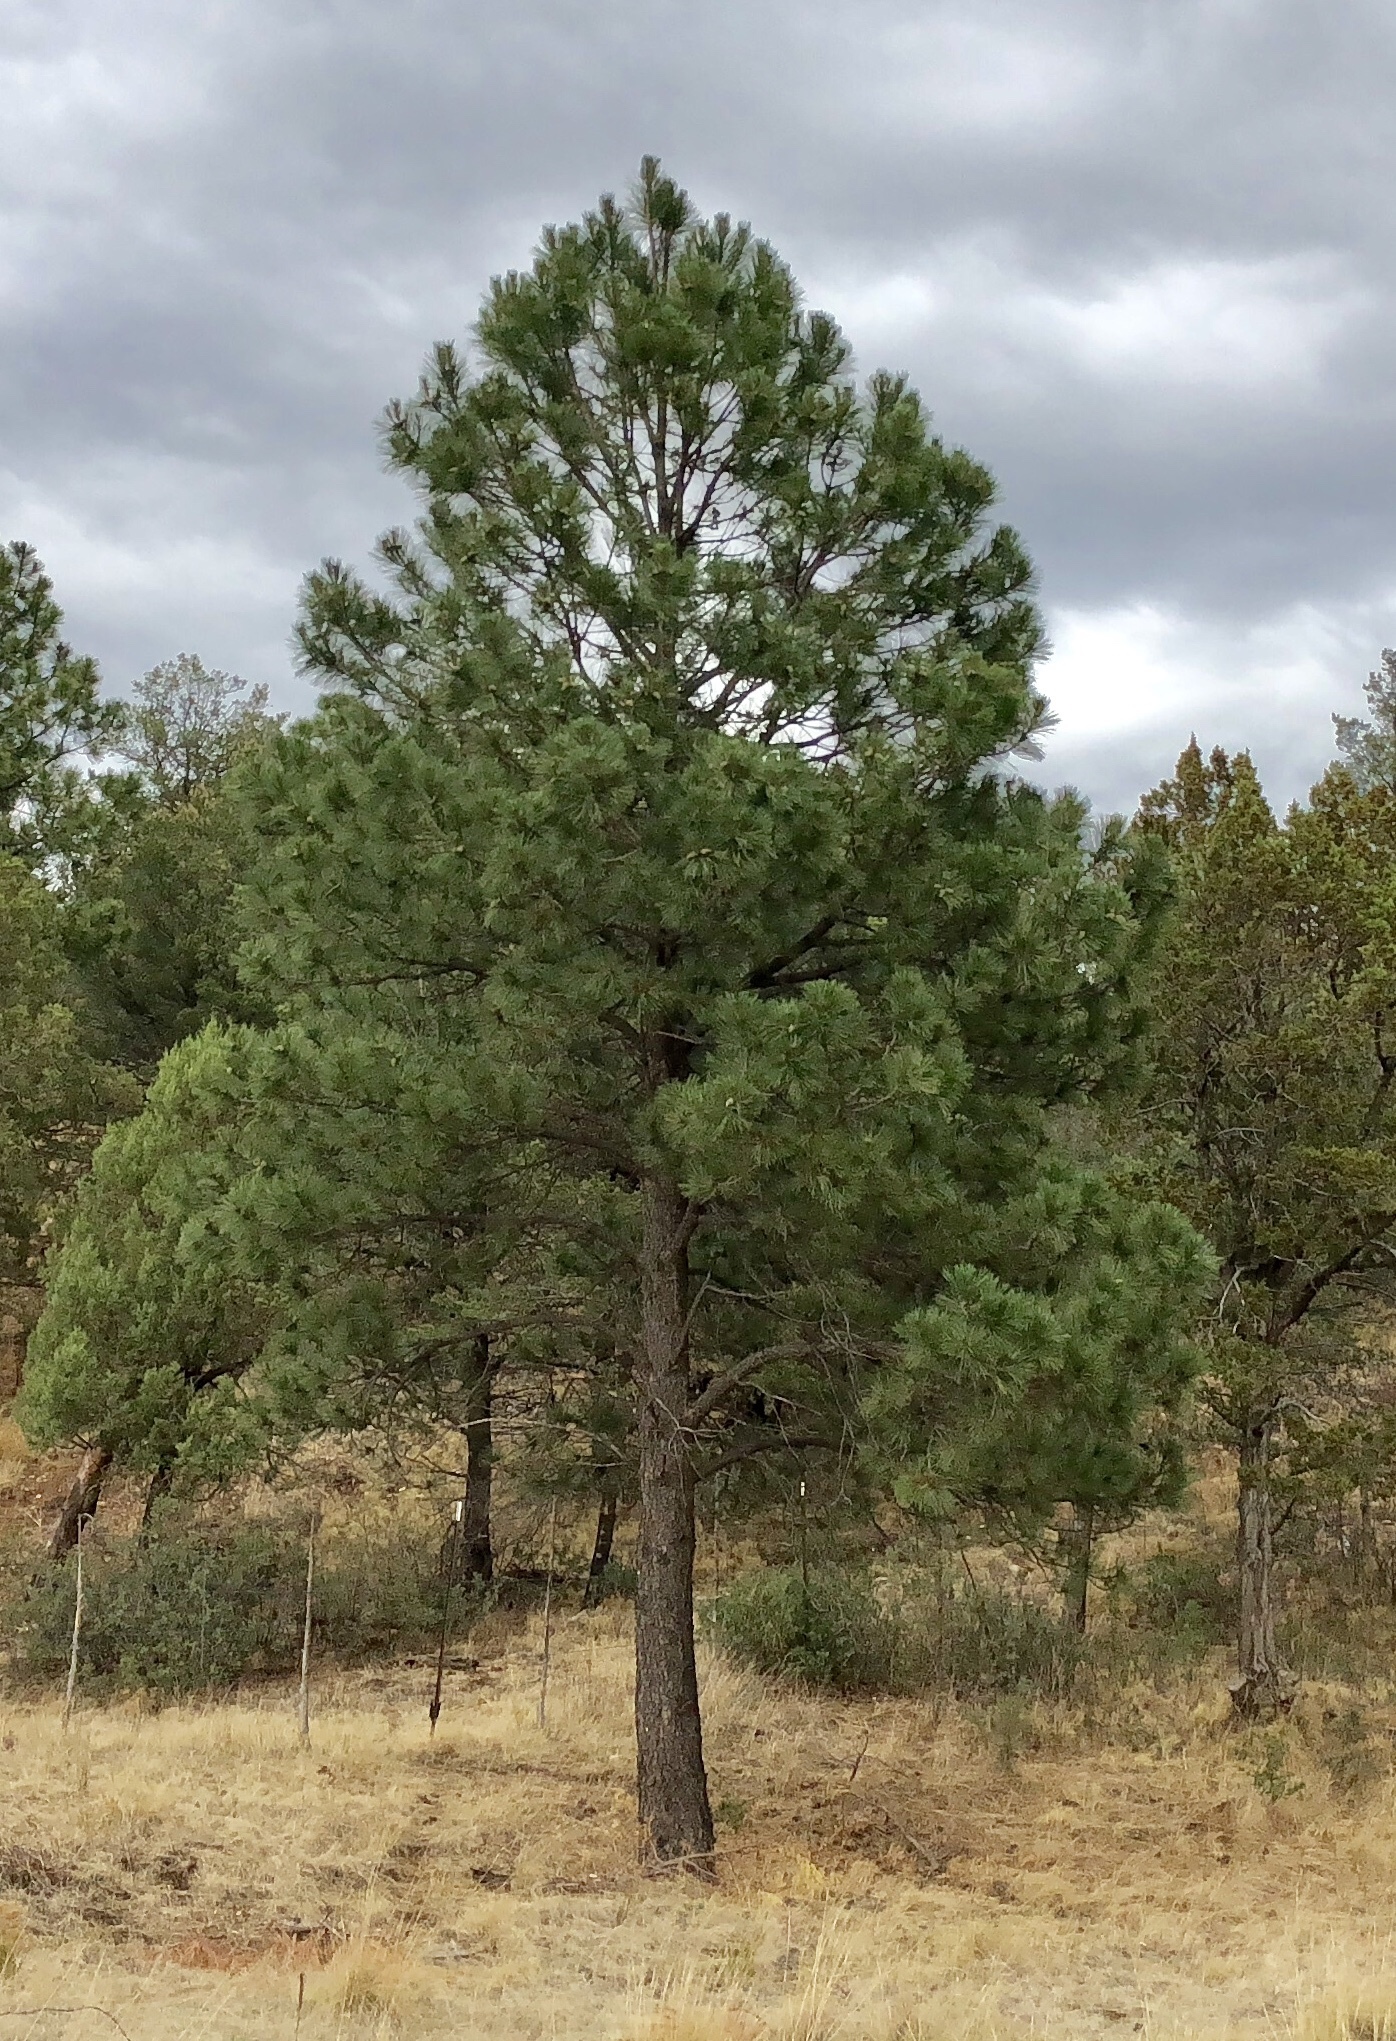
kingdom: Plantae
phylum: Tracheophyta
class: Pinopsida
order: Pinales
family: Pinaceae
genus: Pinus
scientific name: Pinus ponderosa
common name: Western yellow-pine
